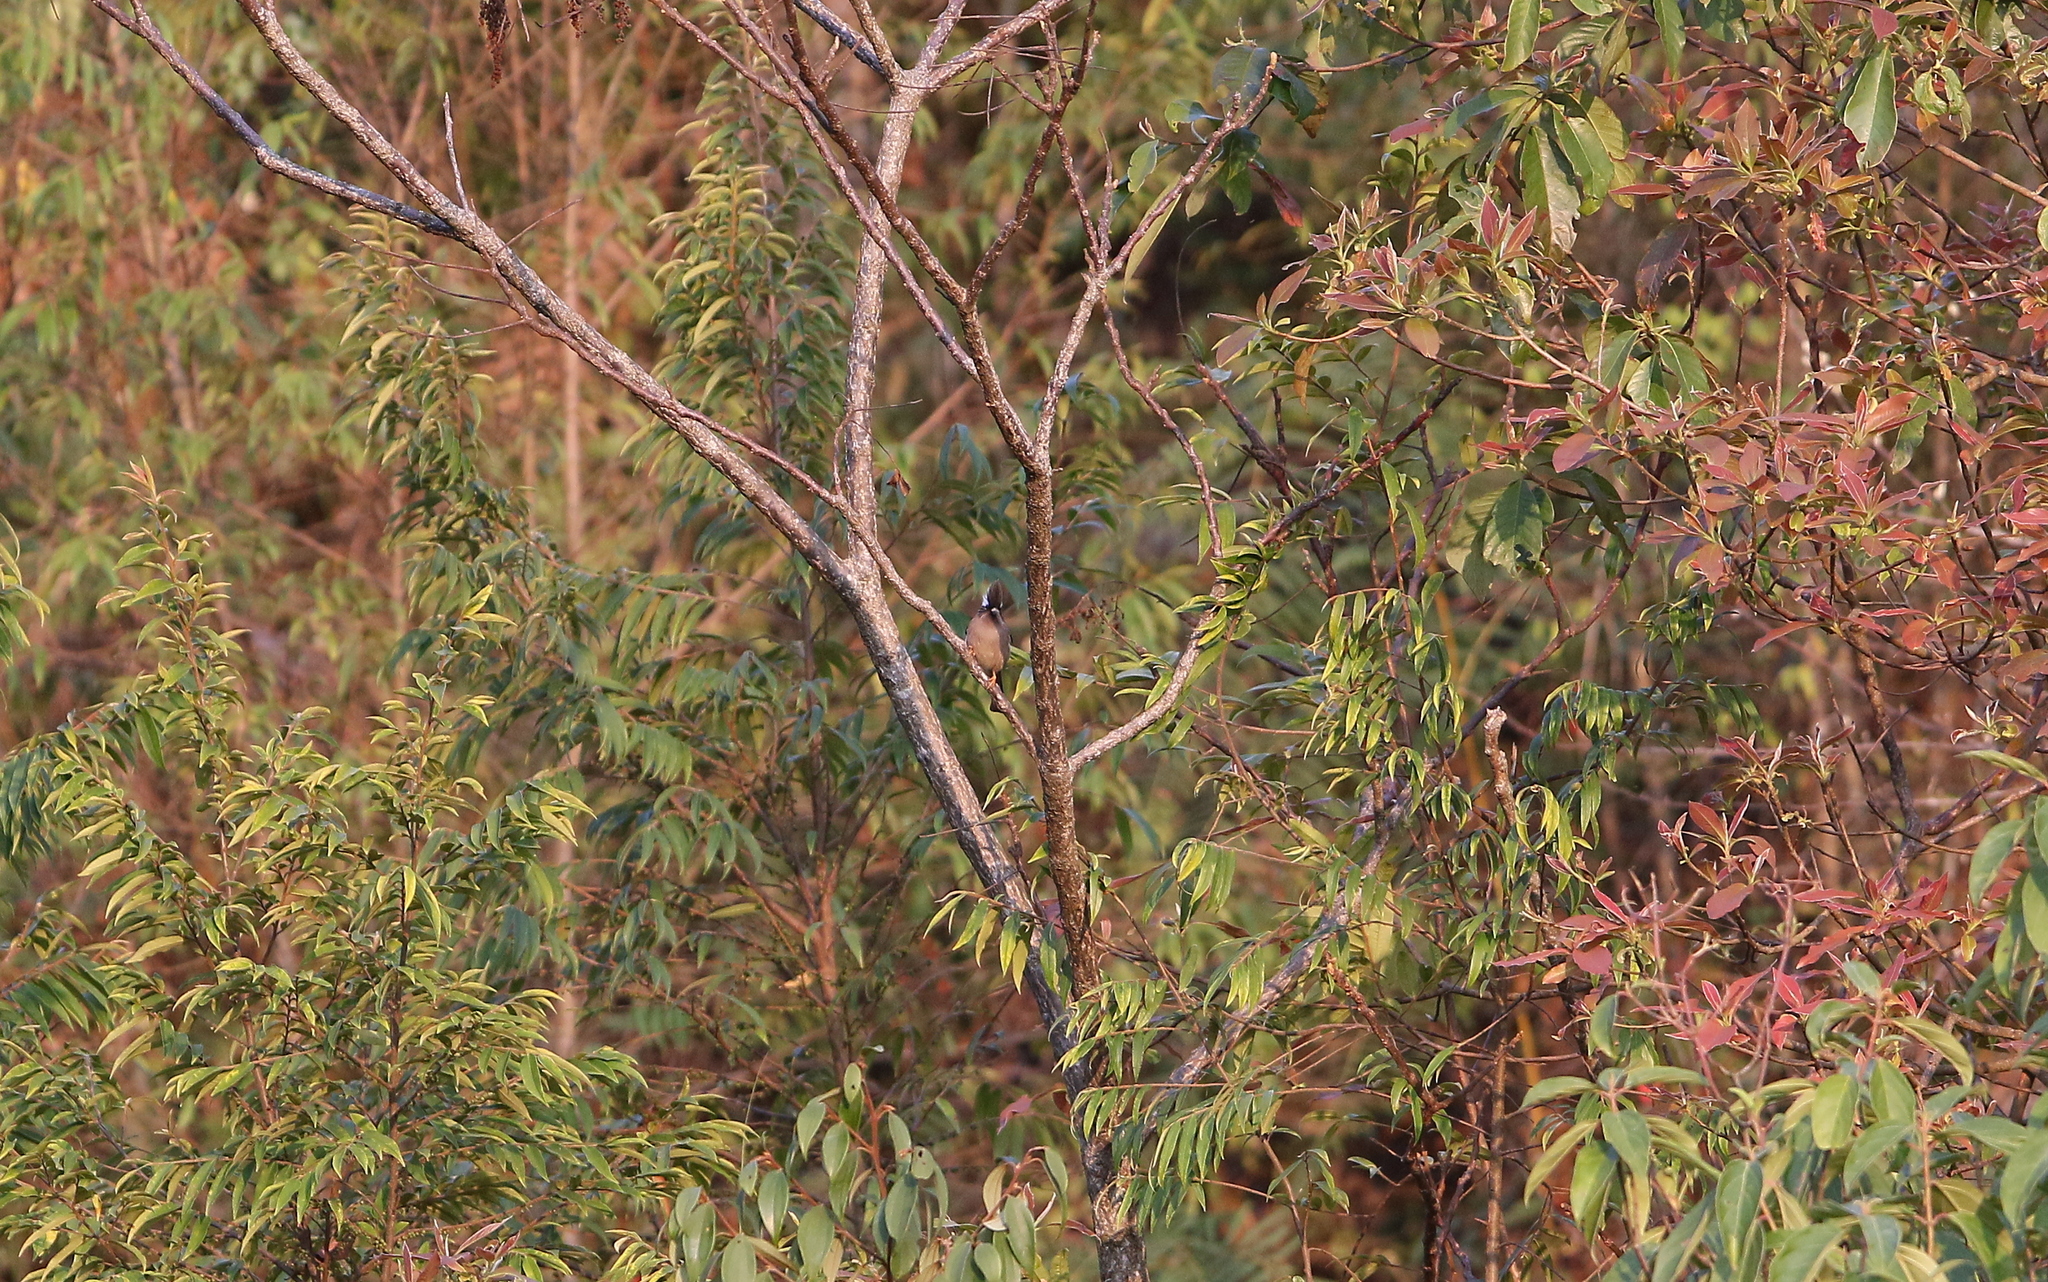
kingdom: Animalia
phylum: Chordata
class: Aves
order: Passeriformes
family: Zosteropidae
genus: Yuhina
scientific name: Yuhina diademata
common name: White-collared yuhina
